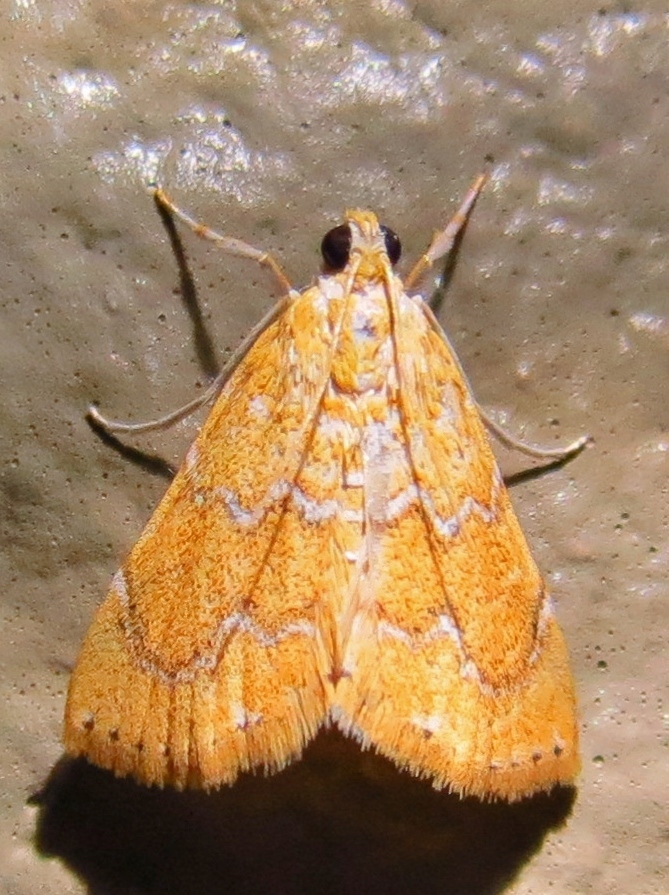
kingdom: Animalia
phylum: Arthropoda
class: Insecta
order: Lepidoptera
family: Crambidae
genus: Glaphyria
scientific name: Glaphyria sesquistrialis
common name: White-roped glaphyria
